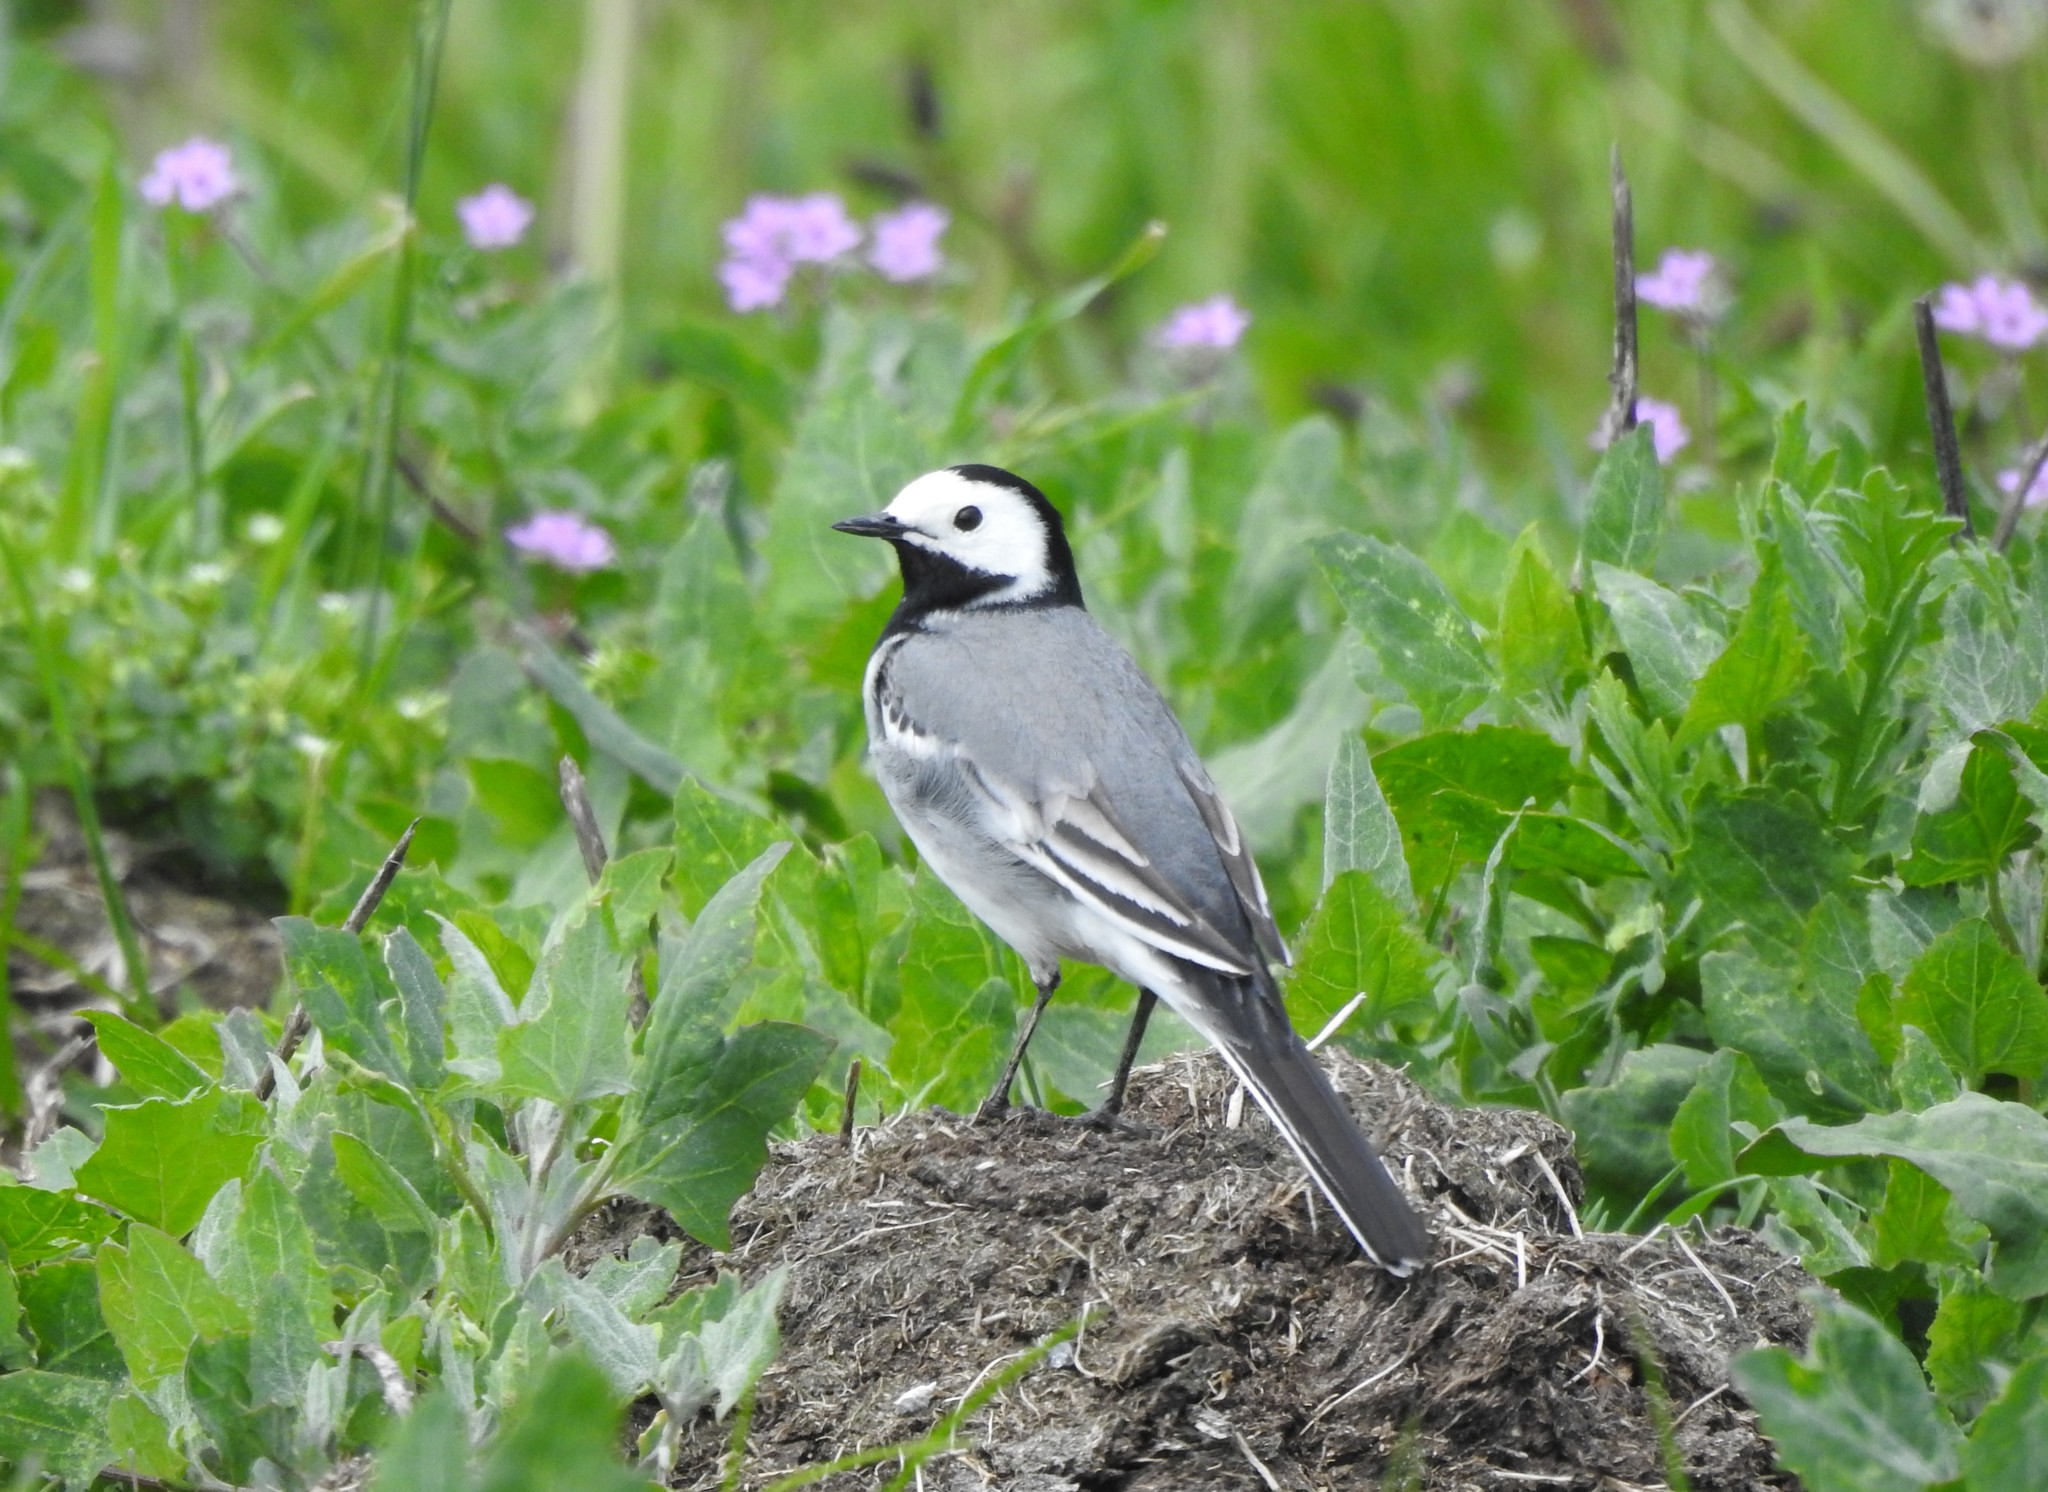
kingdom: Animalia
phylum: Chordata
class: Aves
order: Passeriformes
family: Motacillidae
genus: Motacilla
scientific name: Motacilla alba
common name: White wagtail
